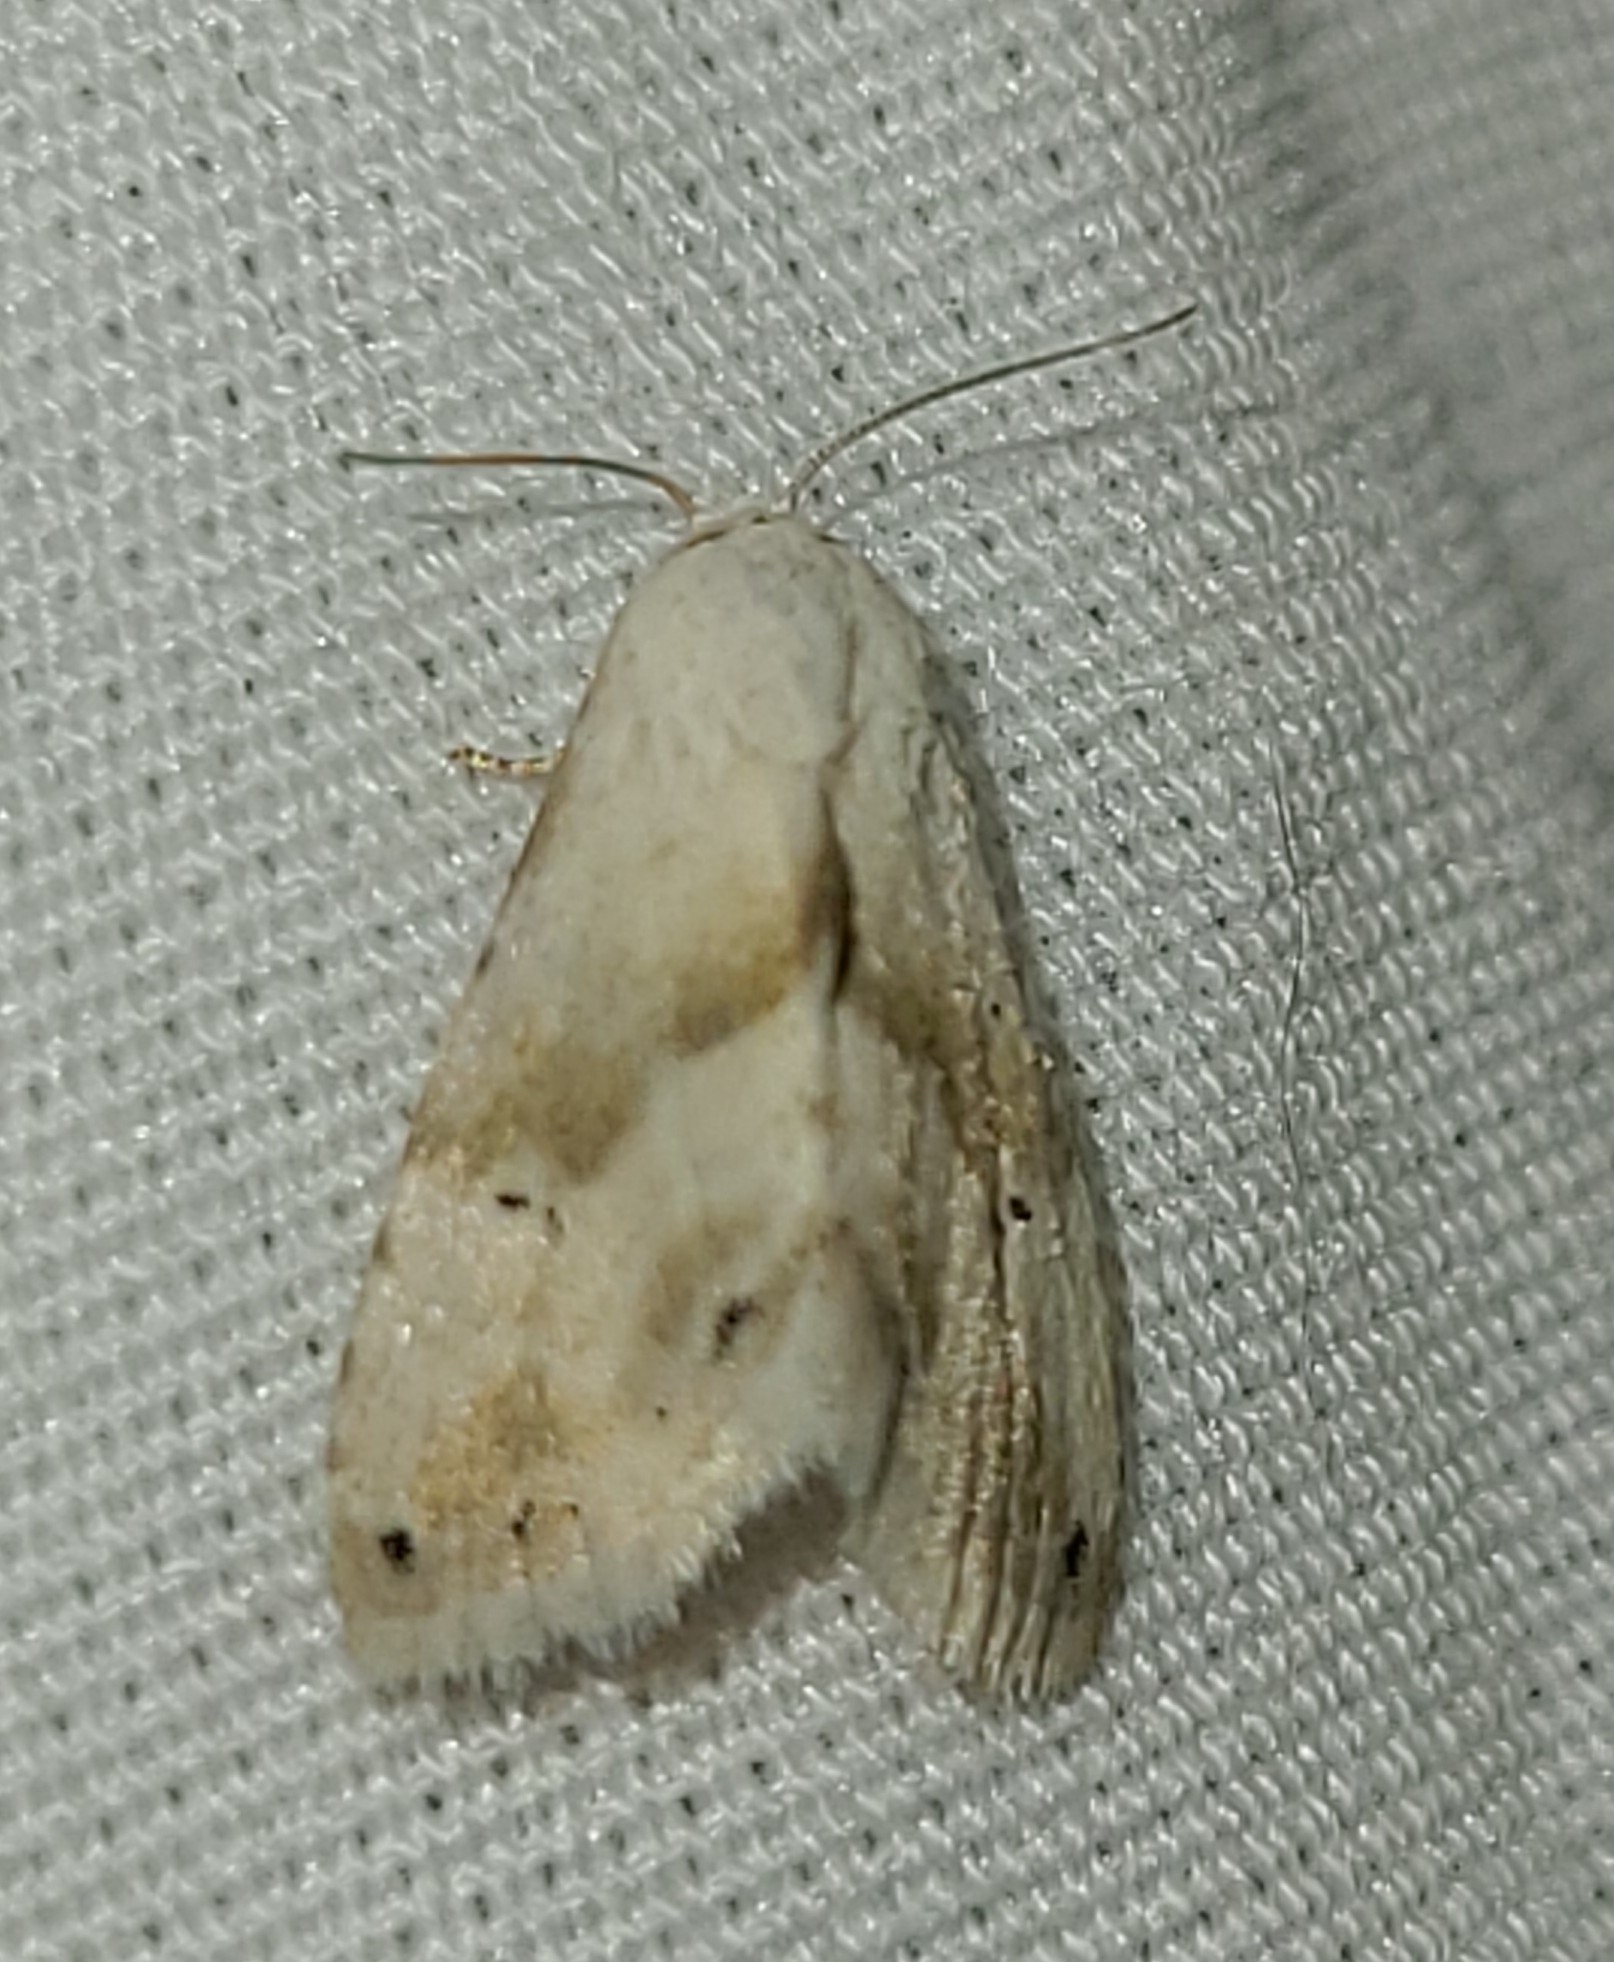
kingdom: Animalia
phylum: Arthropoda
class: Insecta
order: Lepidoptera
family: Noctuidae
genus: Eublemma
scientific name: Eublemma minima
